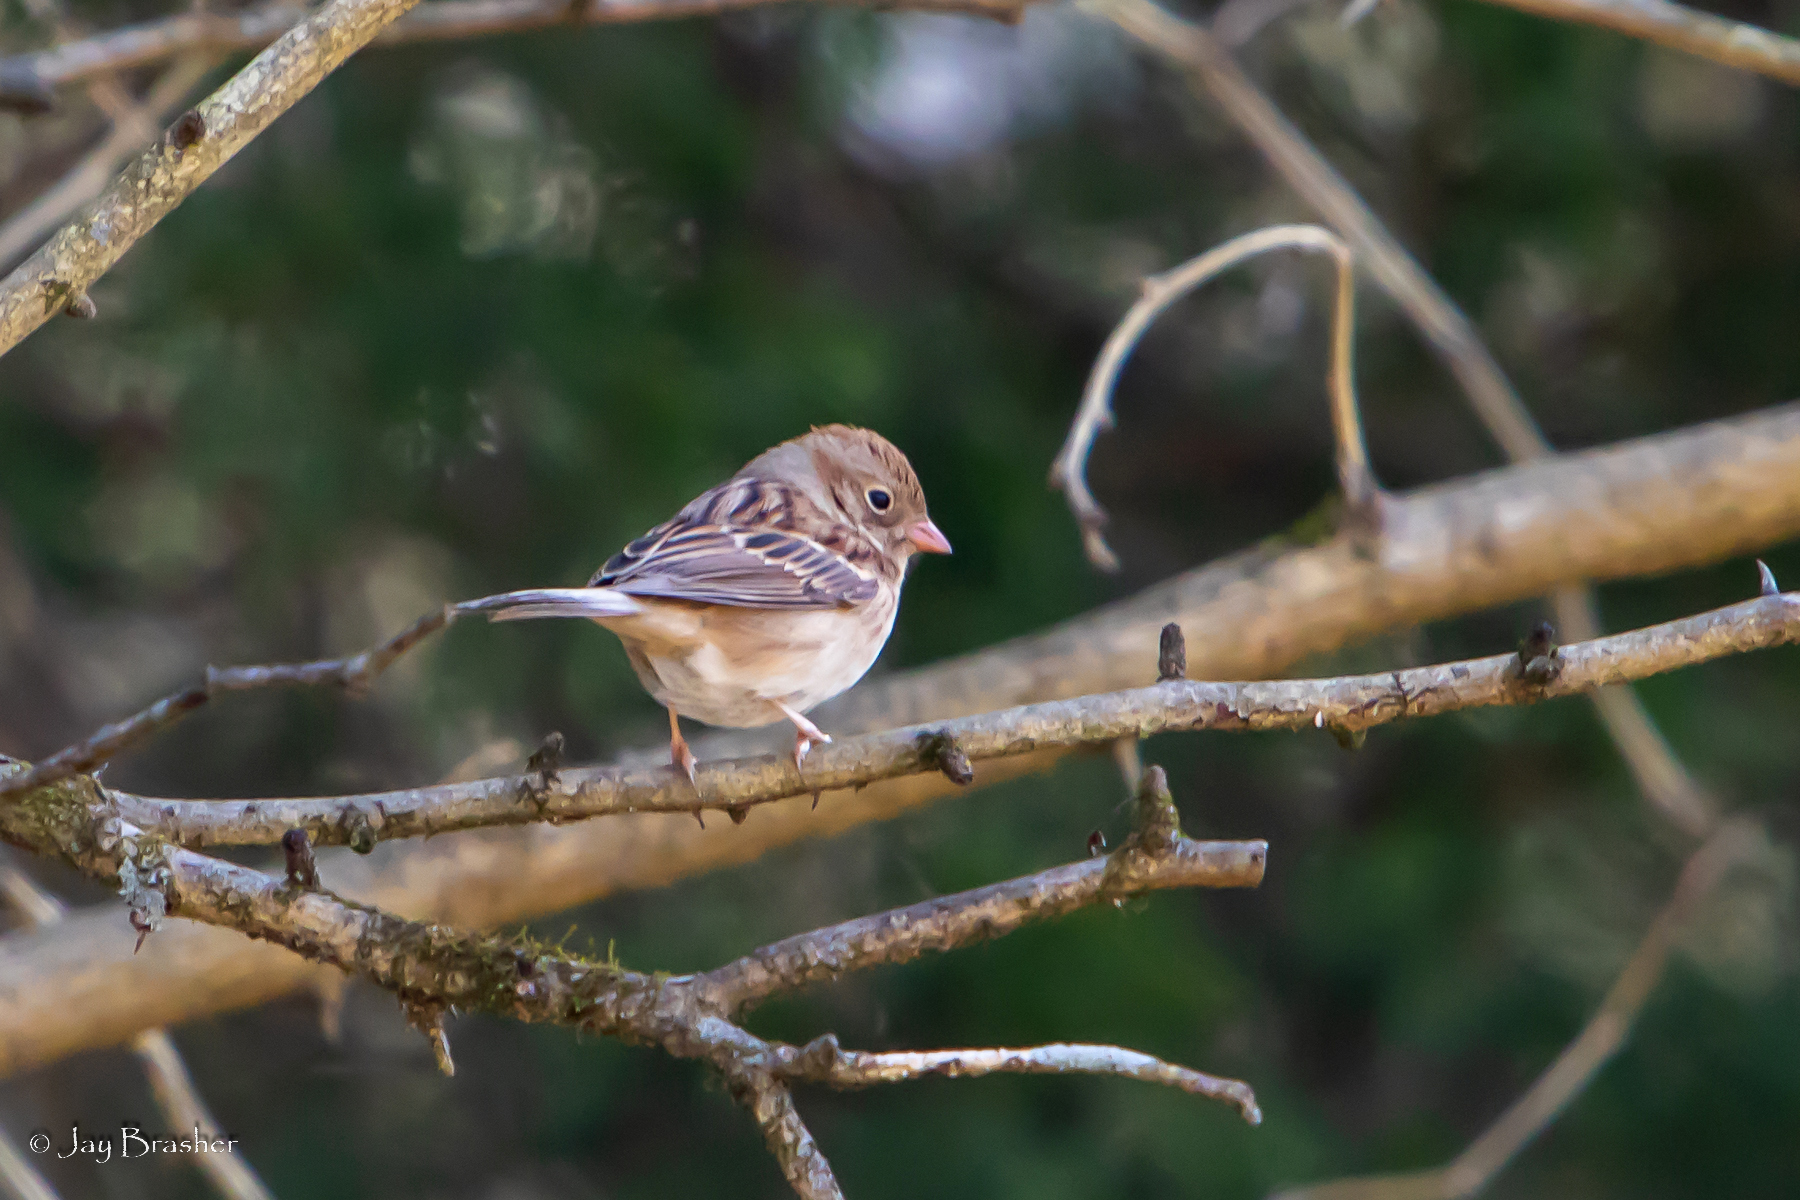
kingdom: Animalia
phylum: Chordata
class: Aves
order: Passeriformes
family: Passerellidae
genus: Spizella
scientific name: Spizella pusilla
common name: Field sparrow
